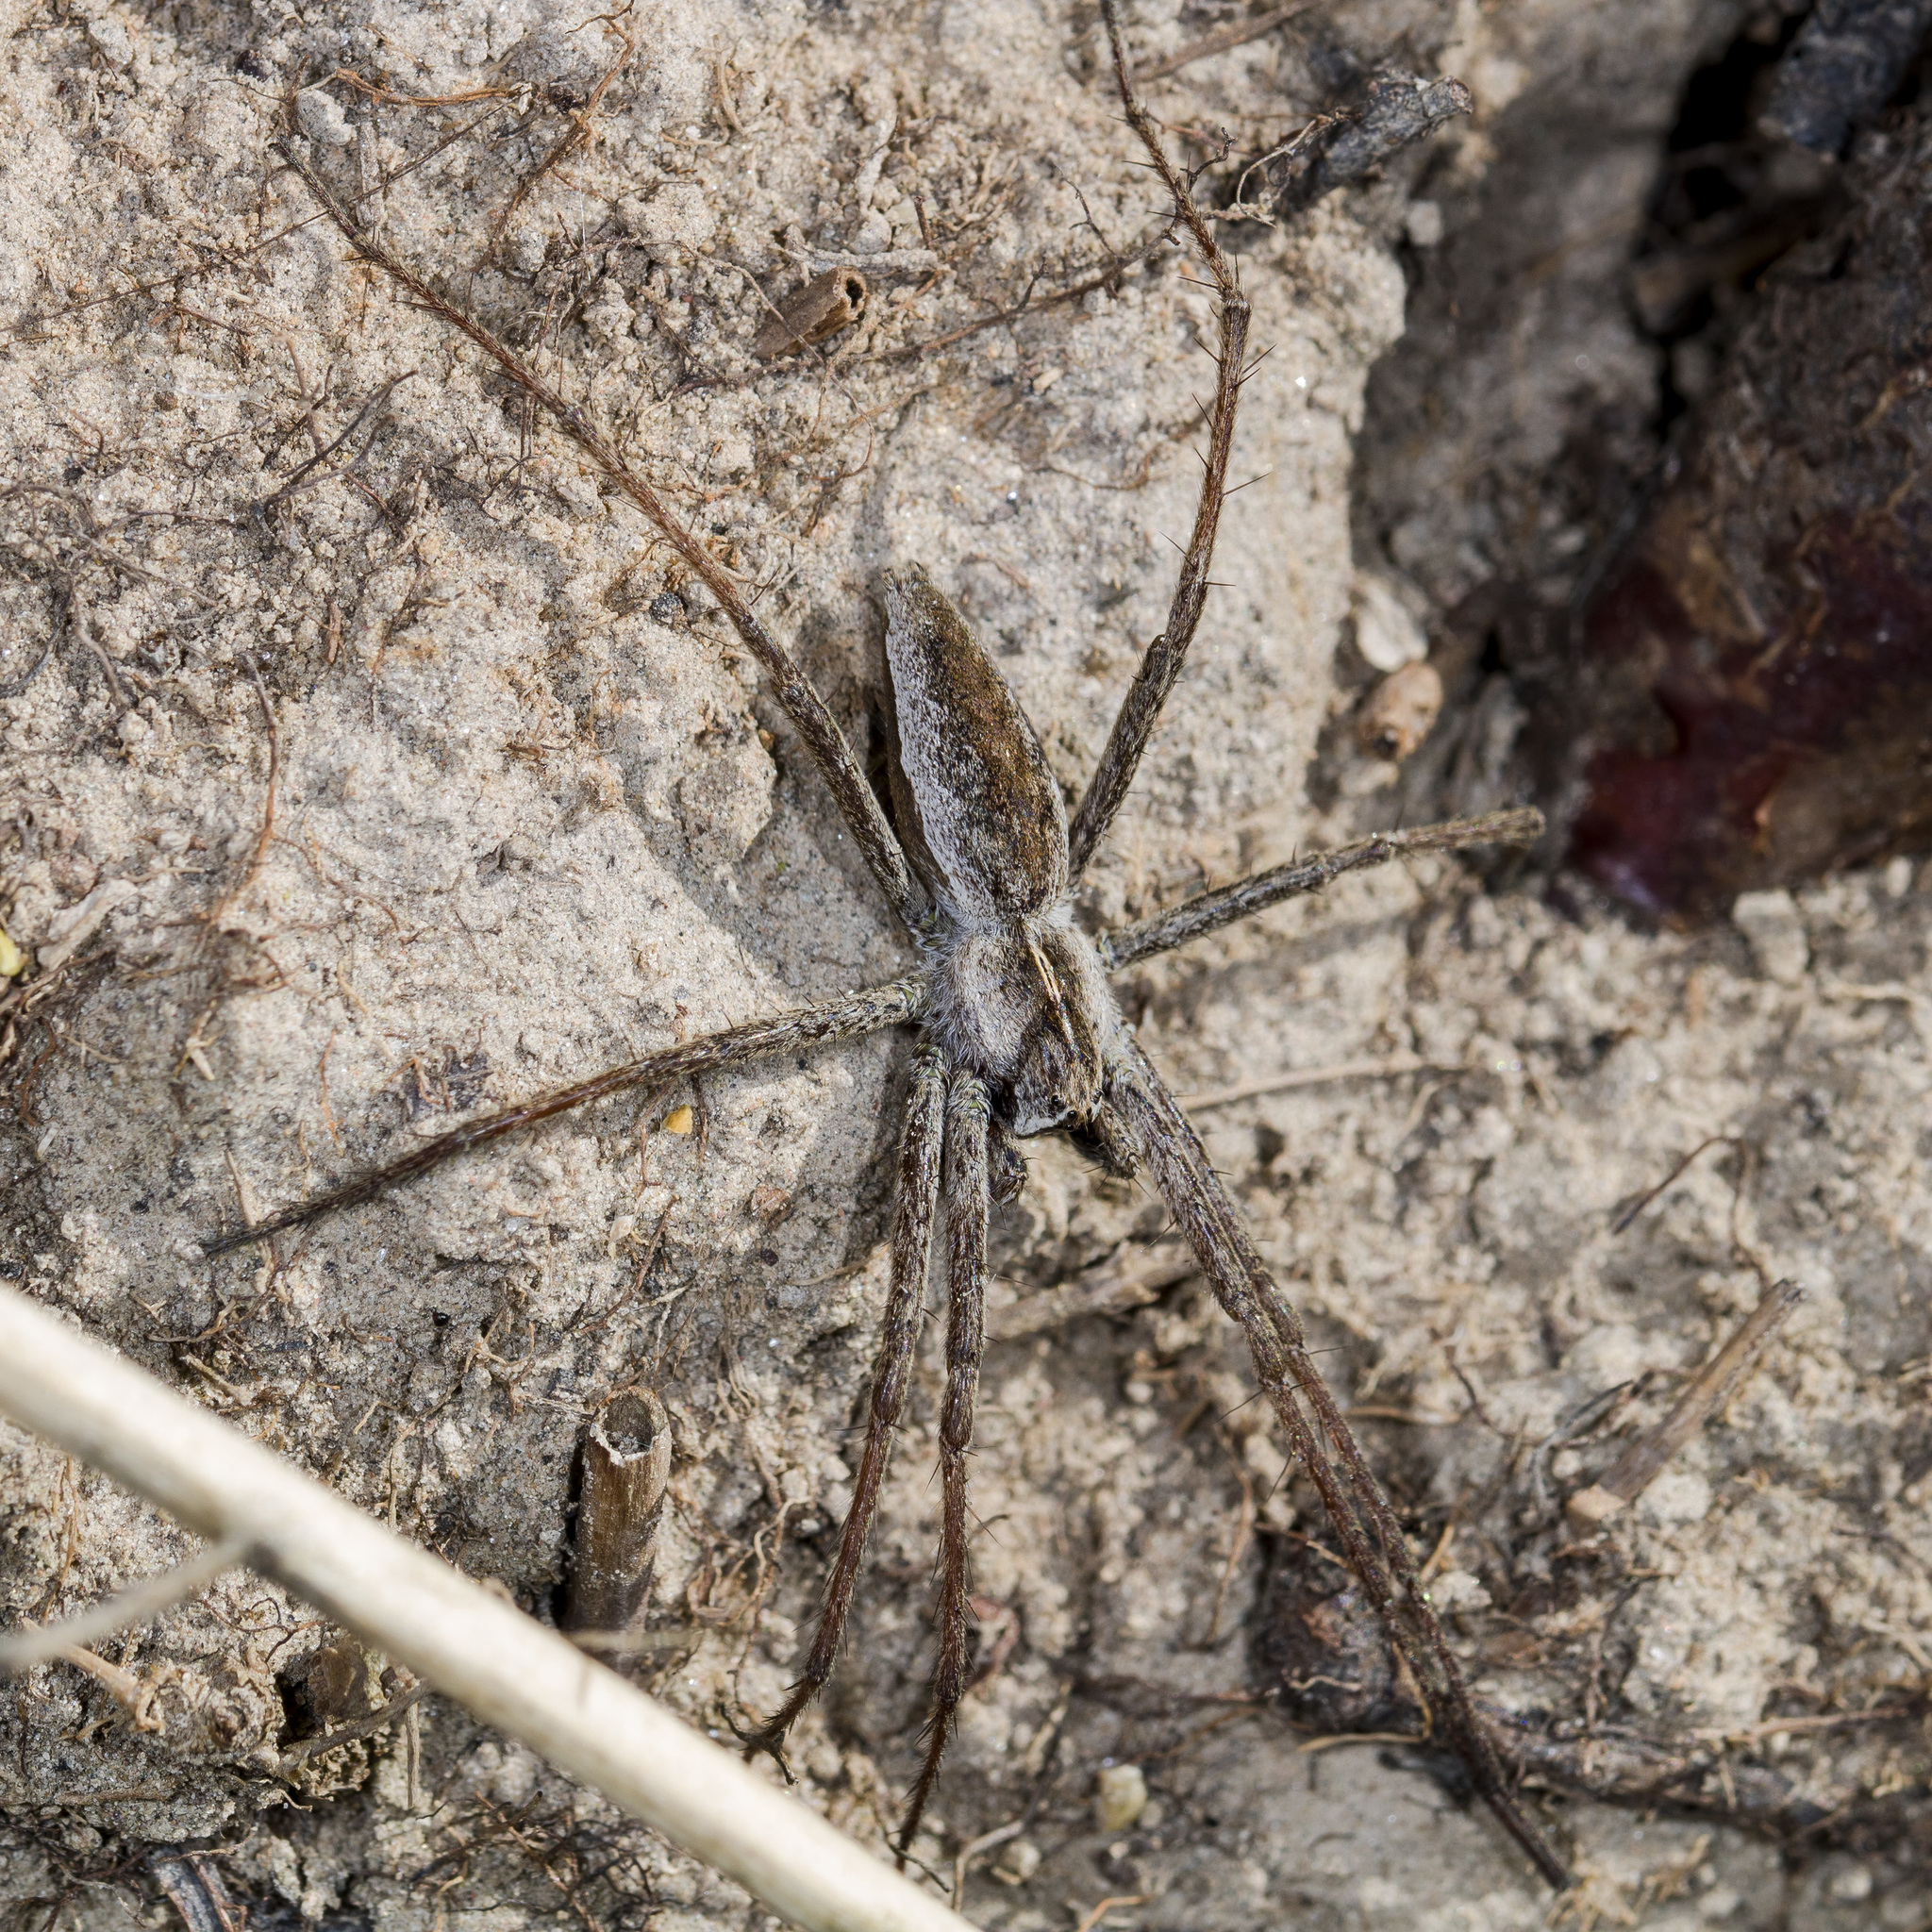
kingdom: Animalia
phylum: Arthropoda
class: Arachnida
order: Araneae
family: Pisauridae
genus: Pisaura
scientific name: Pisaura mirabilis
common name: Tent spider
